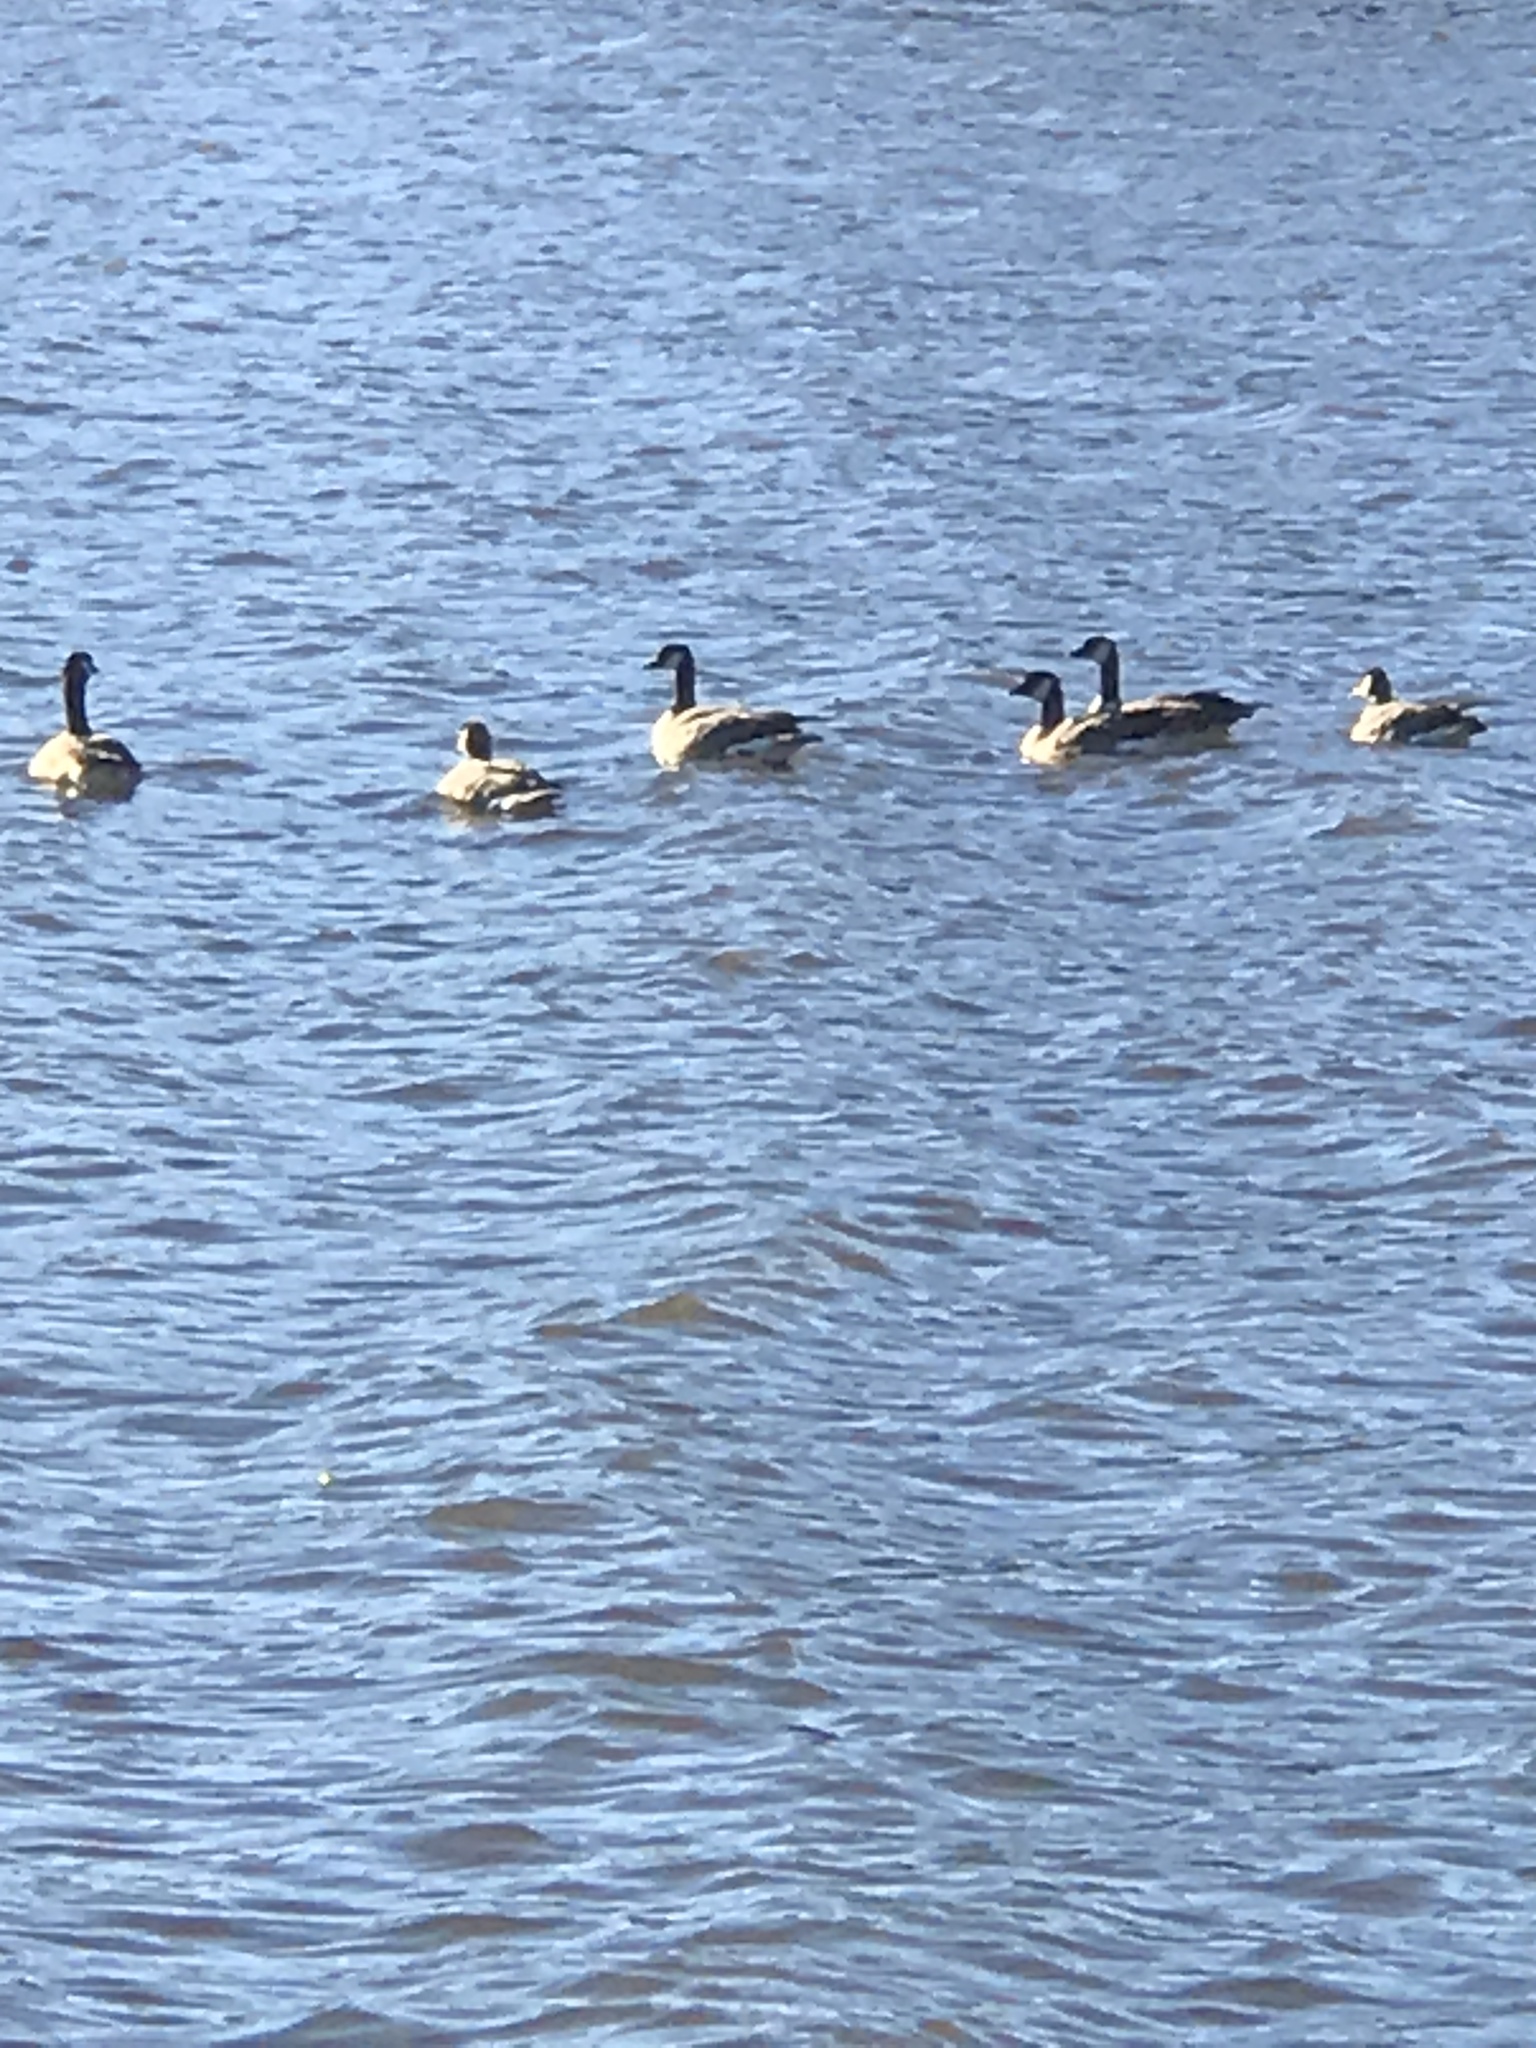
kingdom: Animalia
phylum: Chordata
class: Aves
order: Anseriformes
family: Anatidae
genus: Branta
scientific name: Branta hutchinsii
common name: Cackling goose
